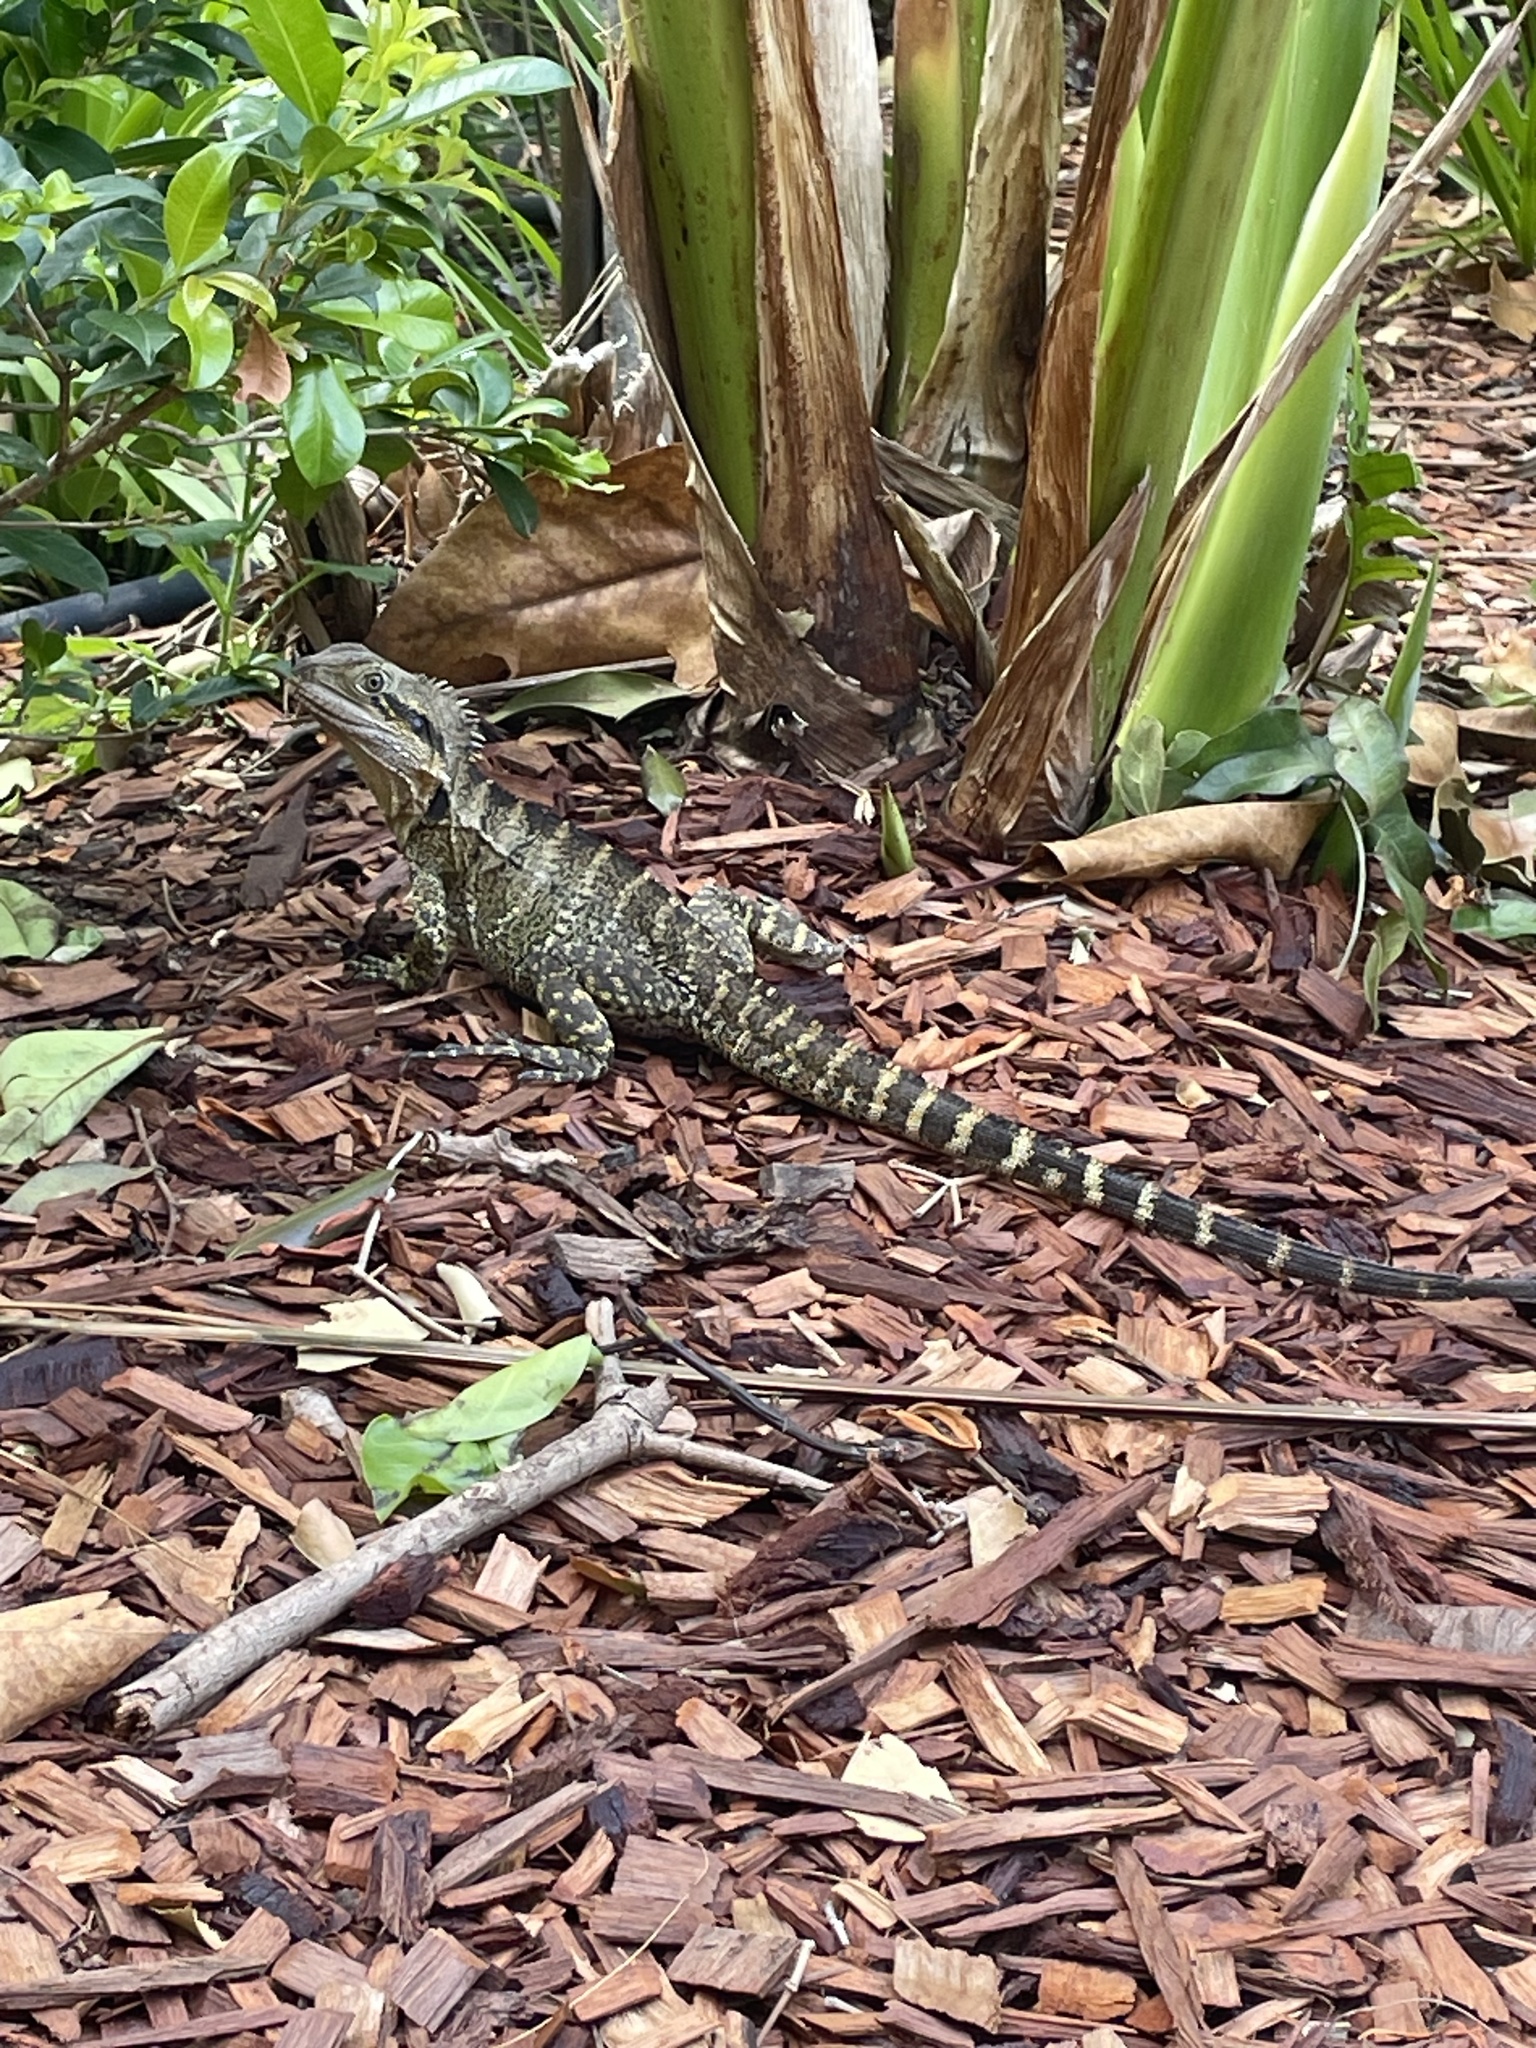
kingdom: Animalia
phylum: Chordata
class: Squamata
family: Agamidae
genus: Intellagama
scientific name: Intellagama lesueurii
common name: Eastern water dragon
